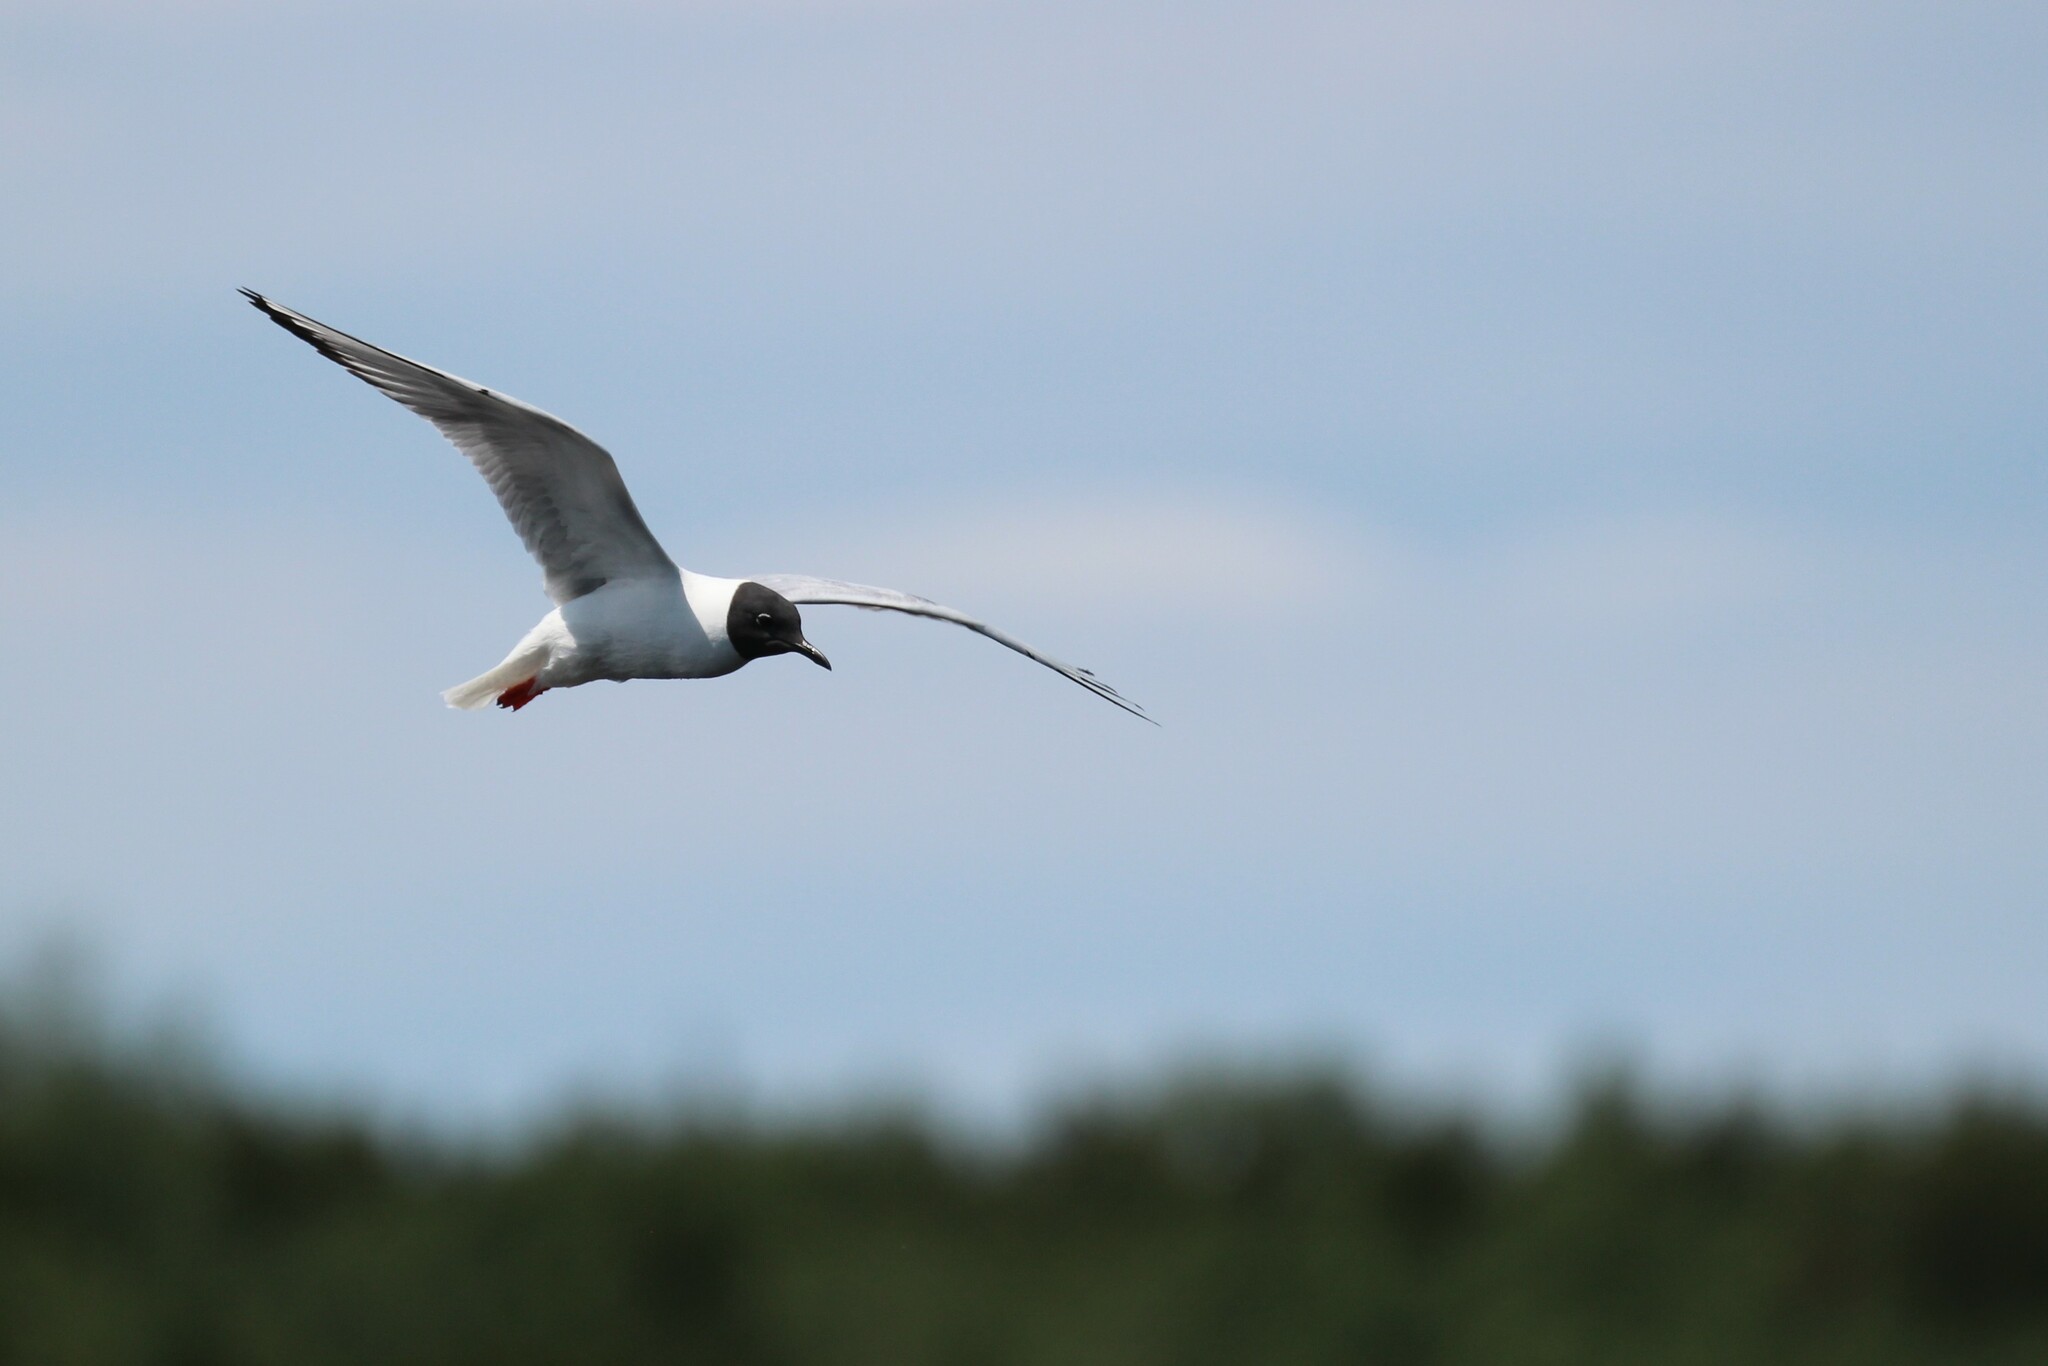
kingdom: Animalia
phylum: Chordata
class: Aves
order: Charadriiformes
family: Laridae
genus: Chroicocephalus
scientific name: Chroicocephalus philadelphia
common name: Bonaparte's gull
